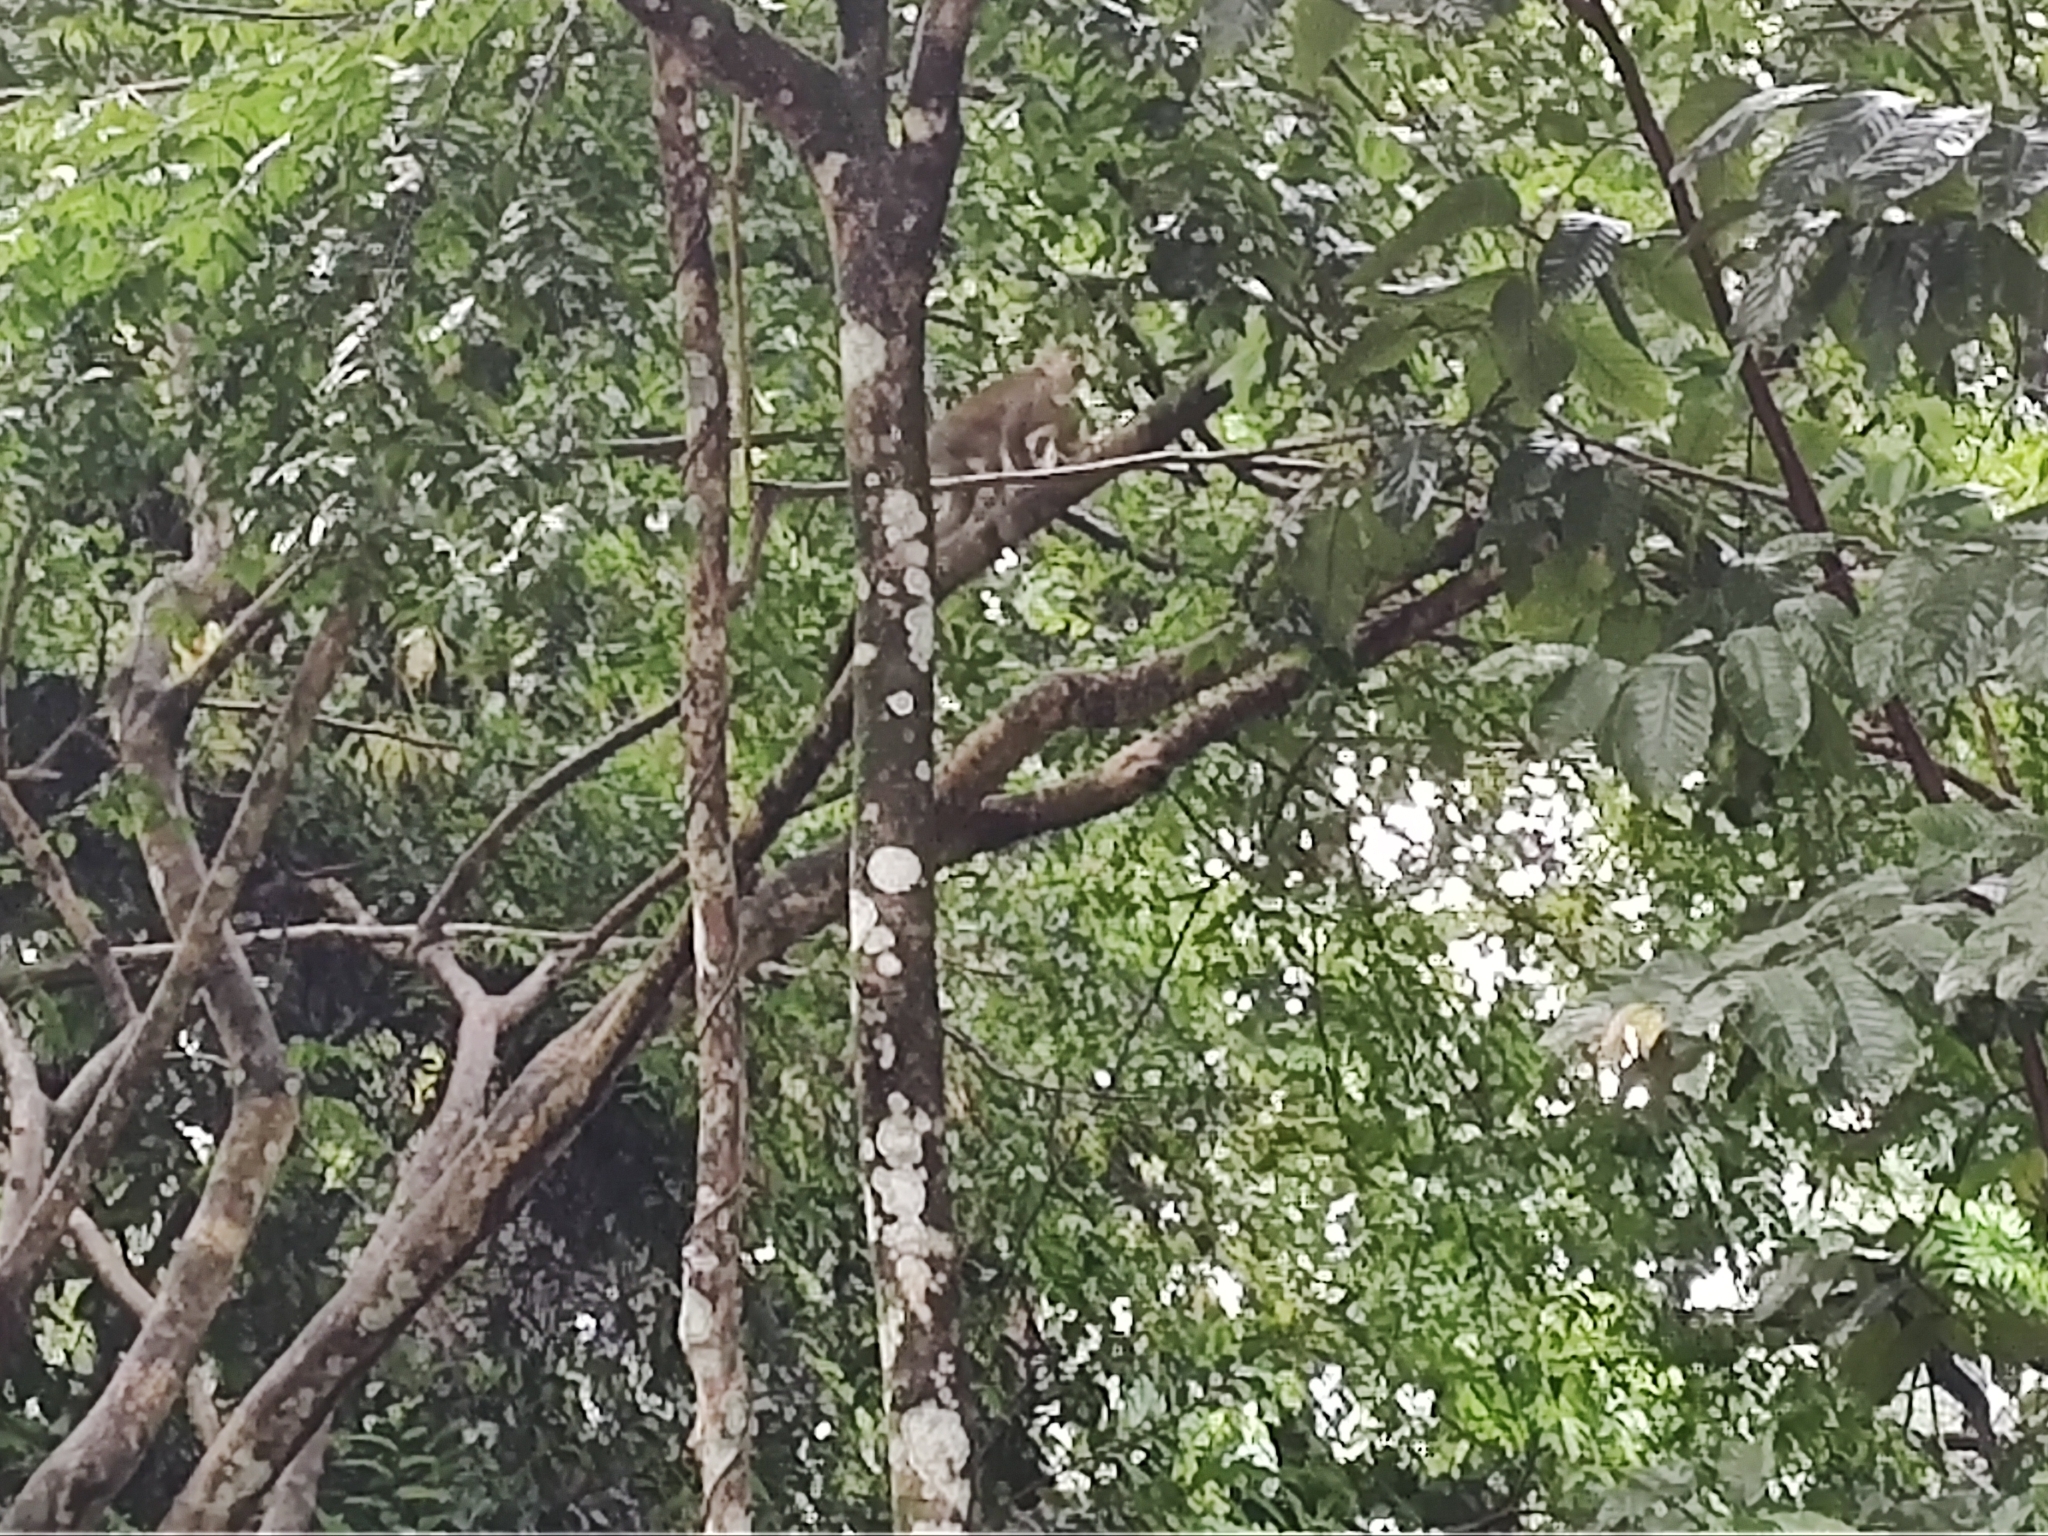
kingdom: Animalia
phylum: Chordata
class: Mammalia
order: Primates
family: Cebidae
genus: Saimiri
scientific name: Saimiri cassiquiarensis
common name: Humboldt’s squirrel monkey
